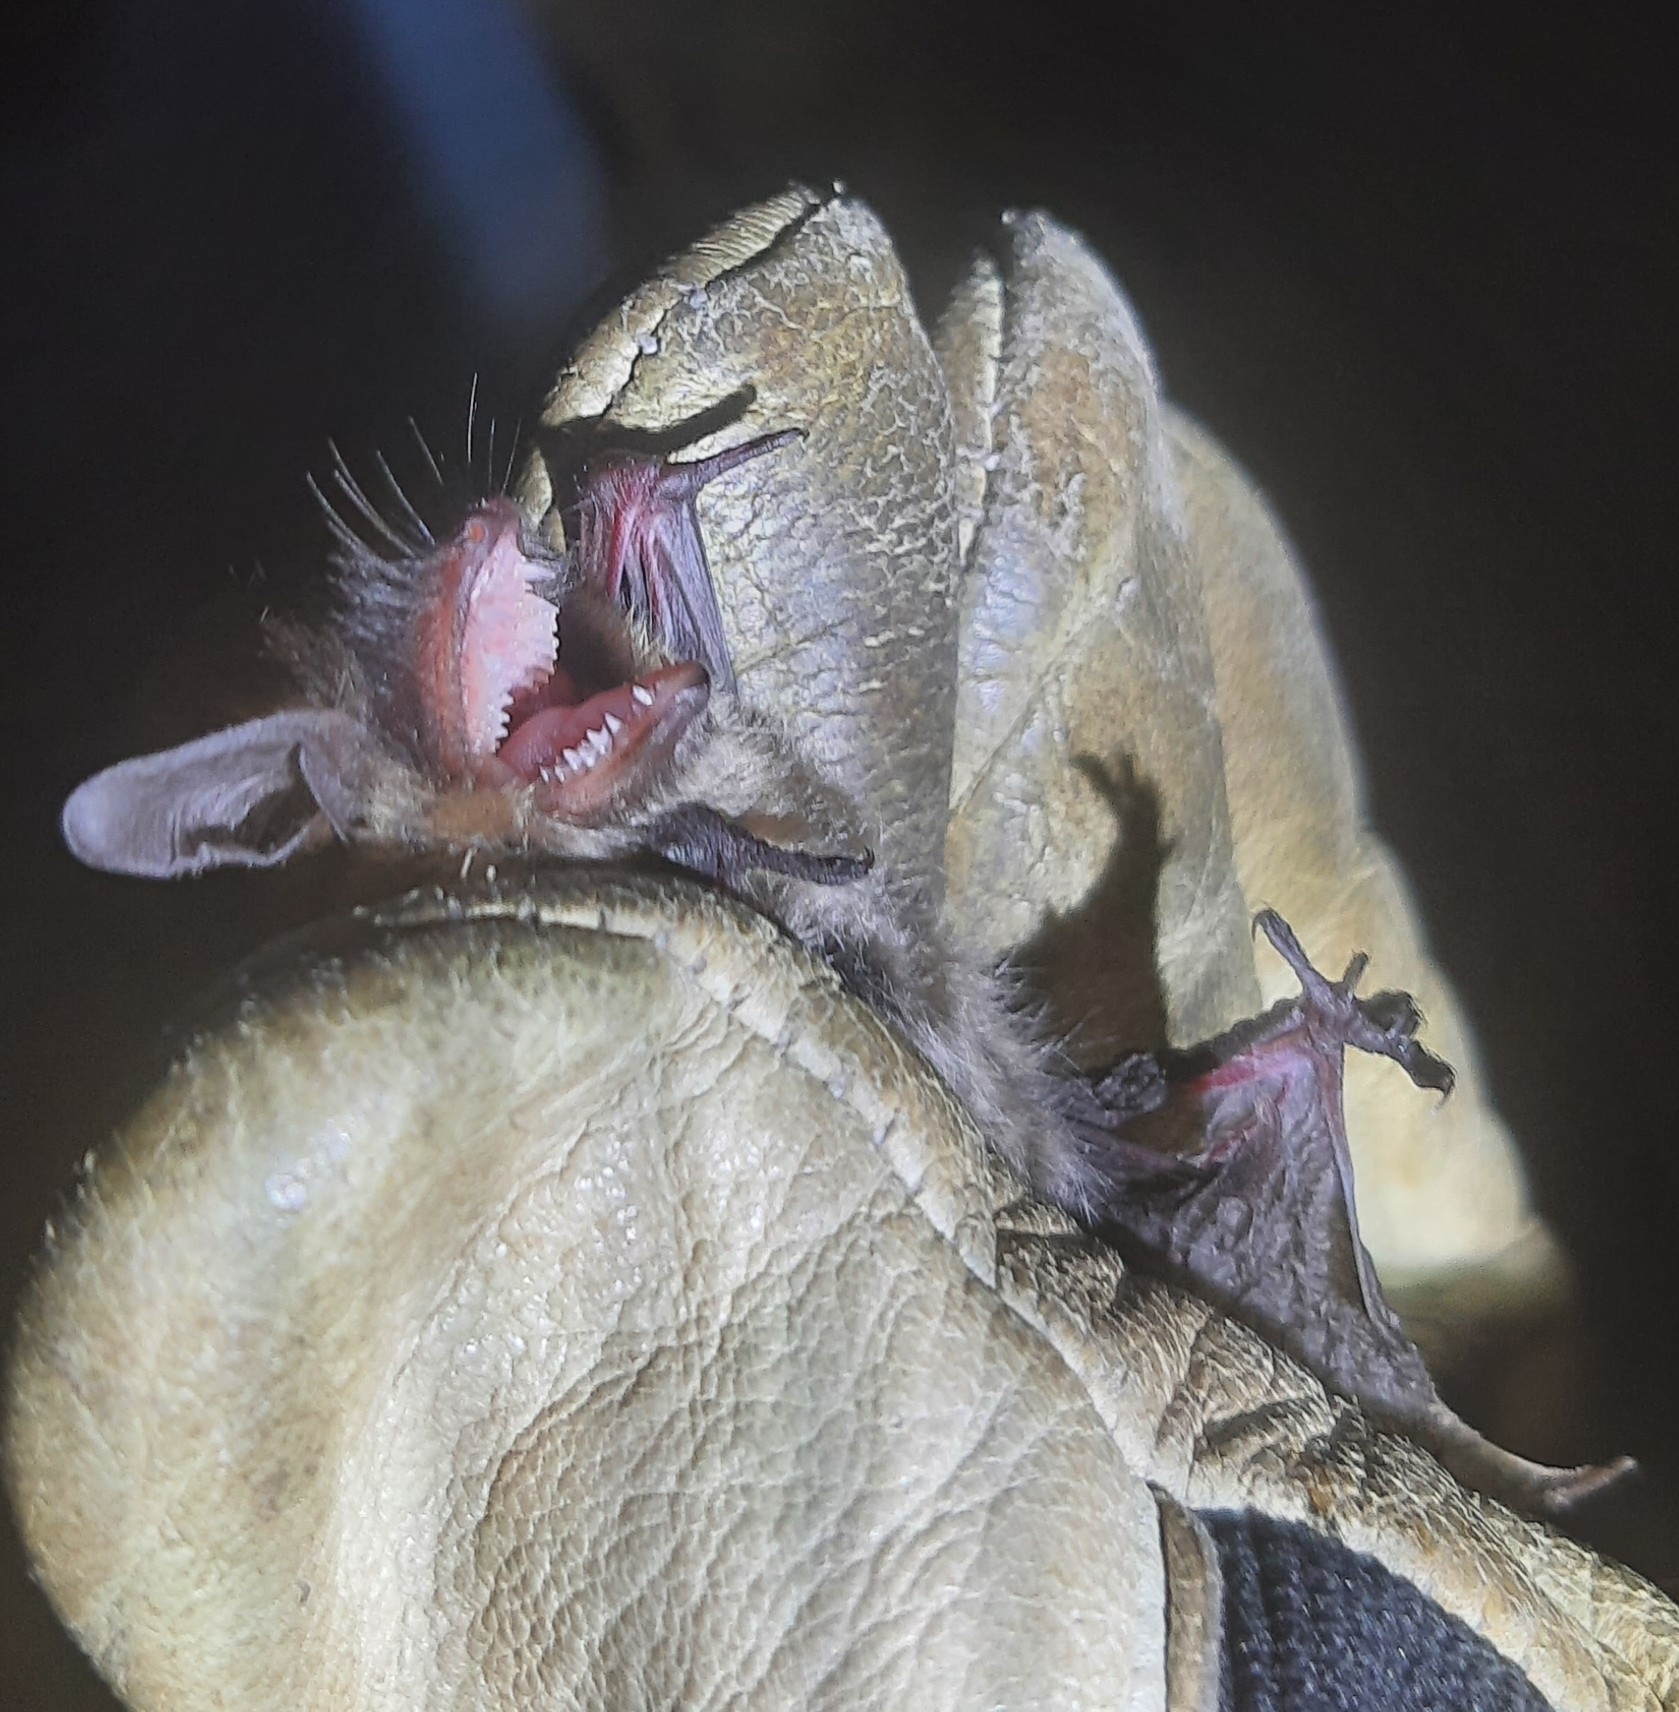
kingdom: Animalia
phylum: Chordata
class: Mammalia
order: Chiroptera
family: Vespertilionidae
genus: Myotis
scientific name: Myotis brandtii
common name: Brandt's myotis
